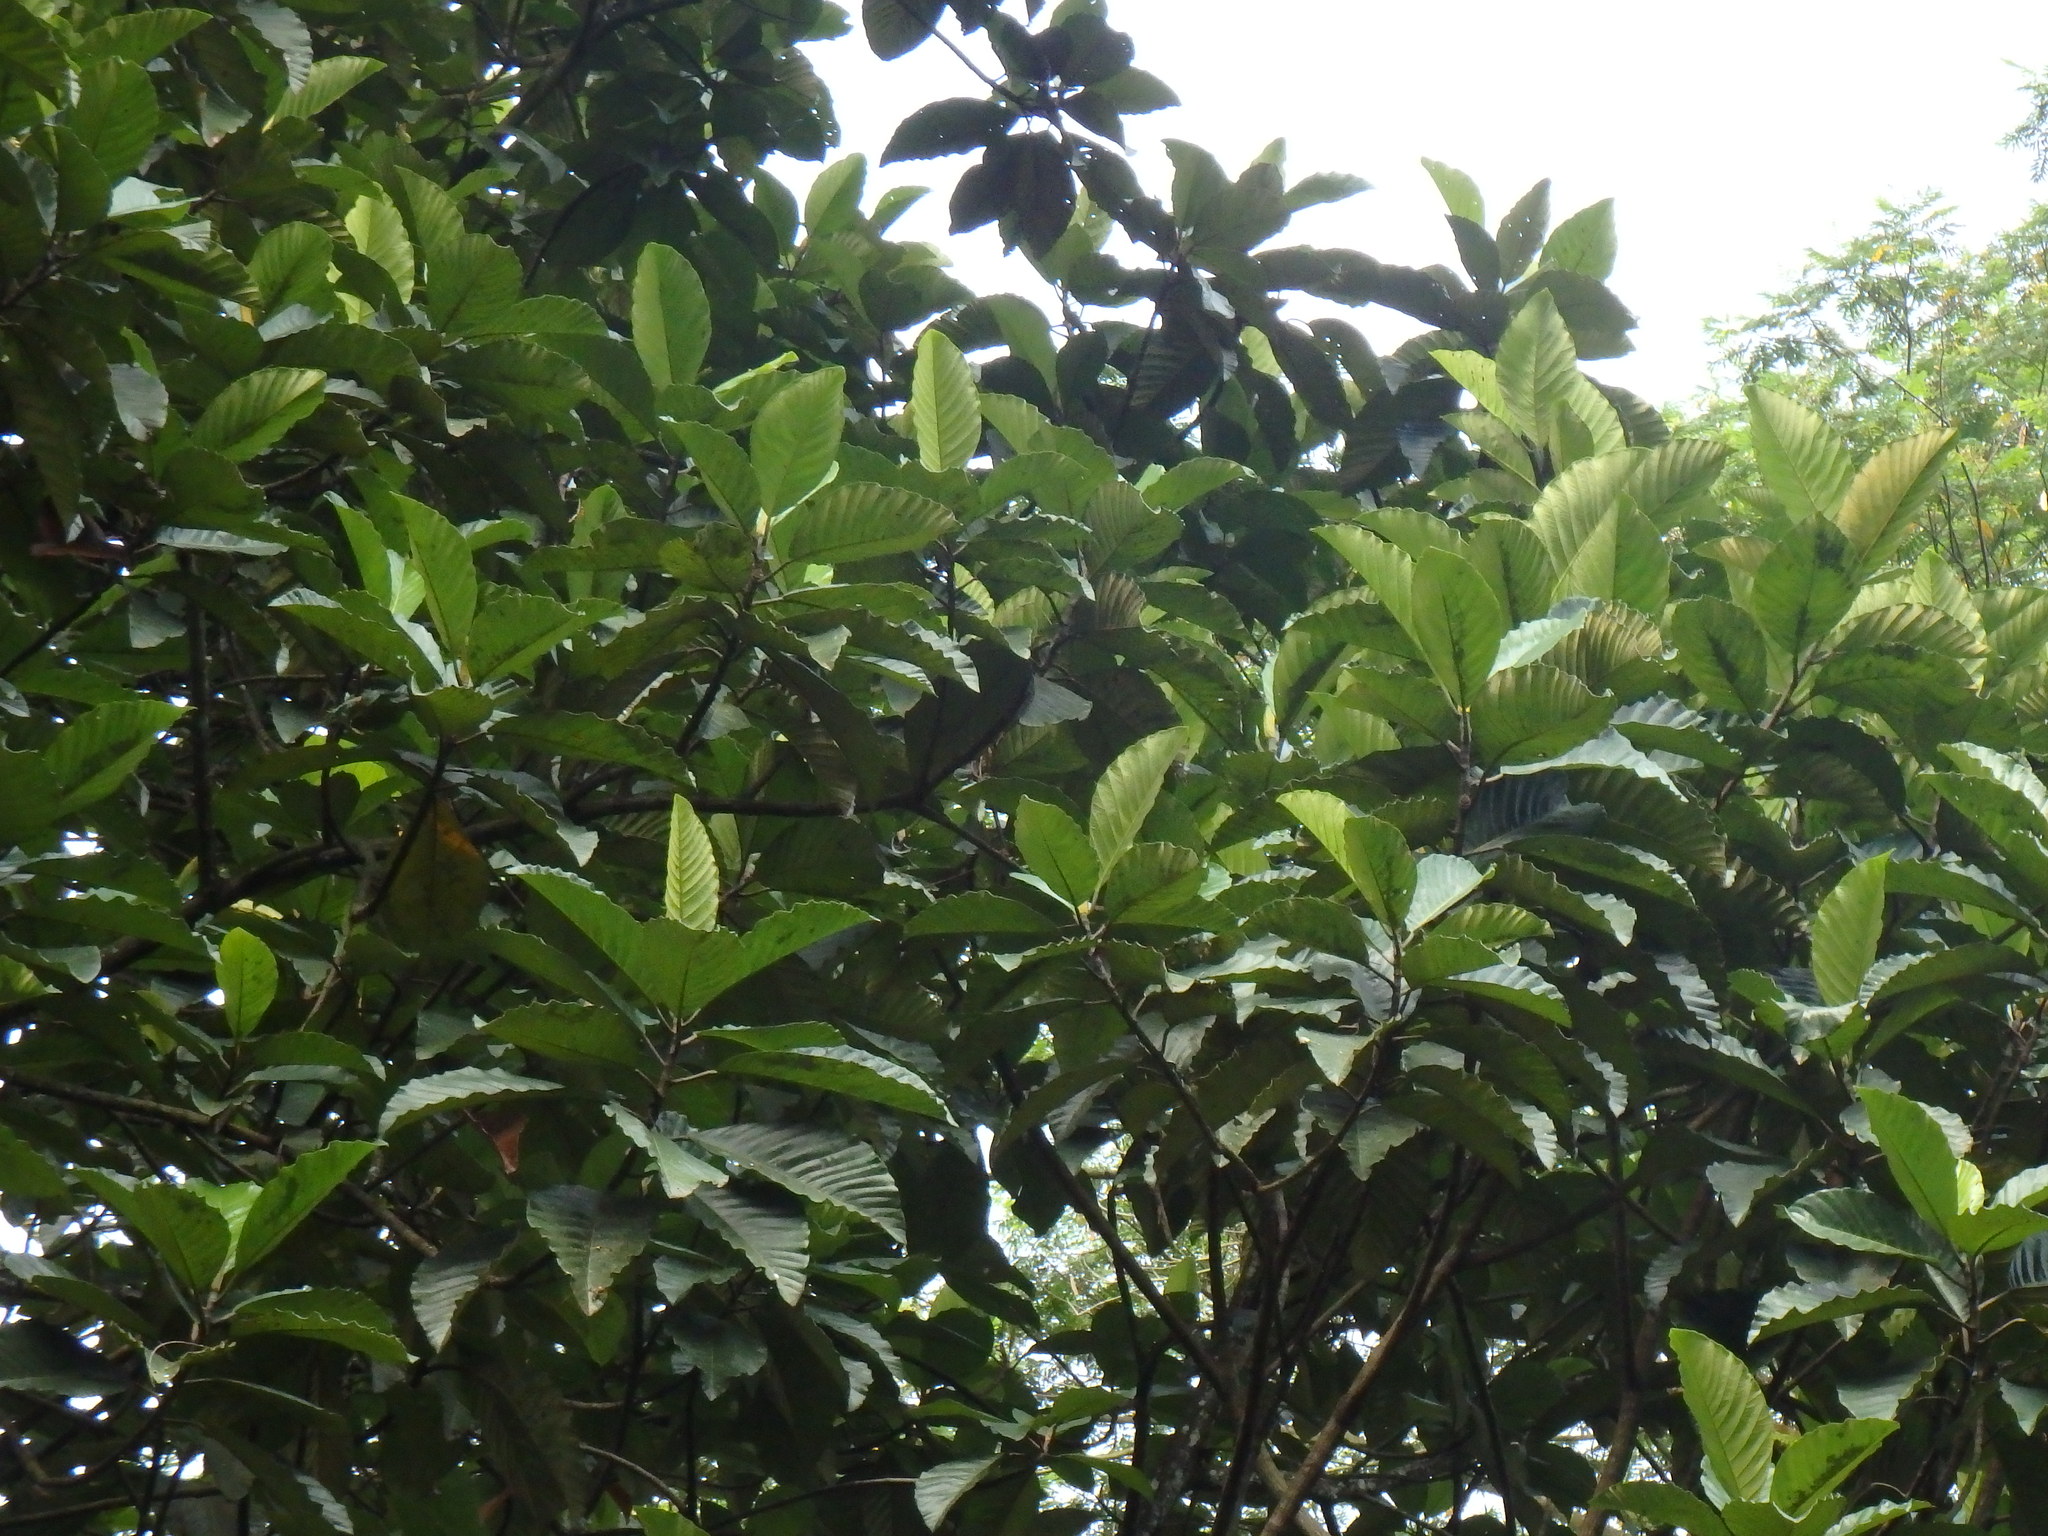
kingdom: Plantae
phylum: Tracheophyta
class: Magnoliopsida
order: Rosales
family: Moraceae
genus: Artocarpus
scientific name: Artocarpus elasticus
